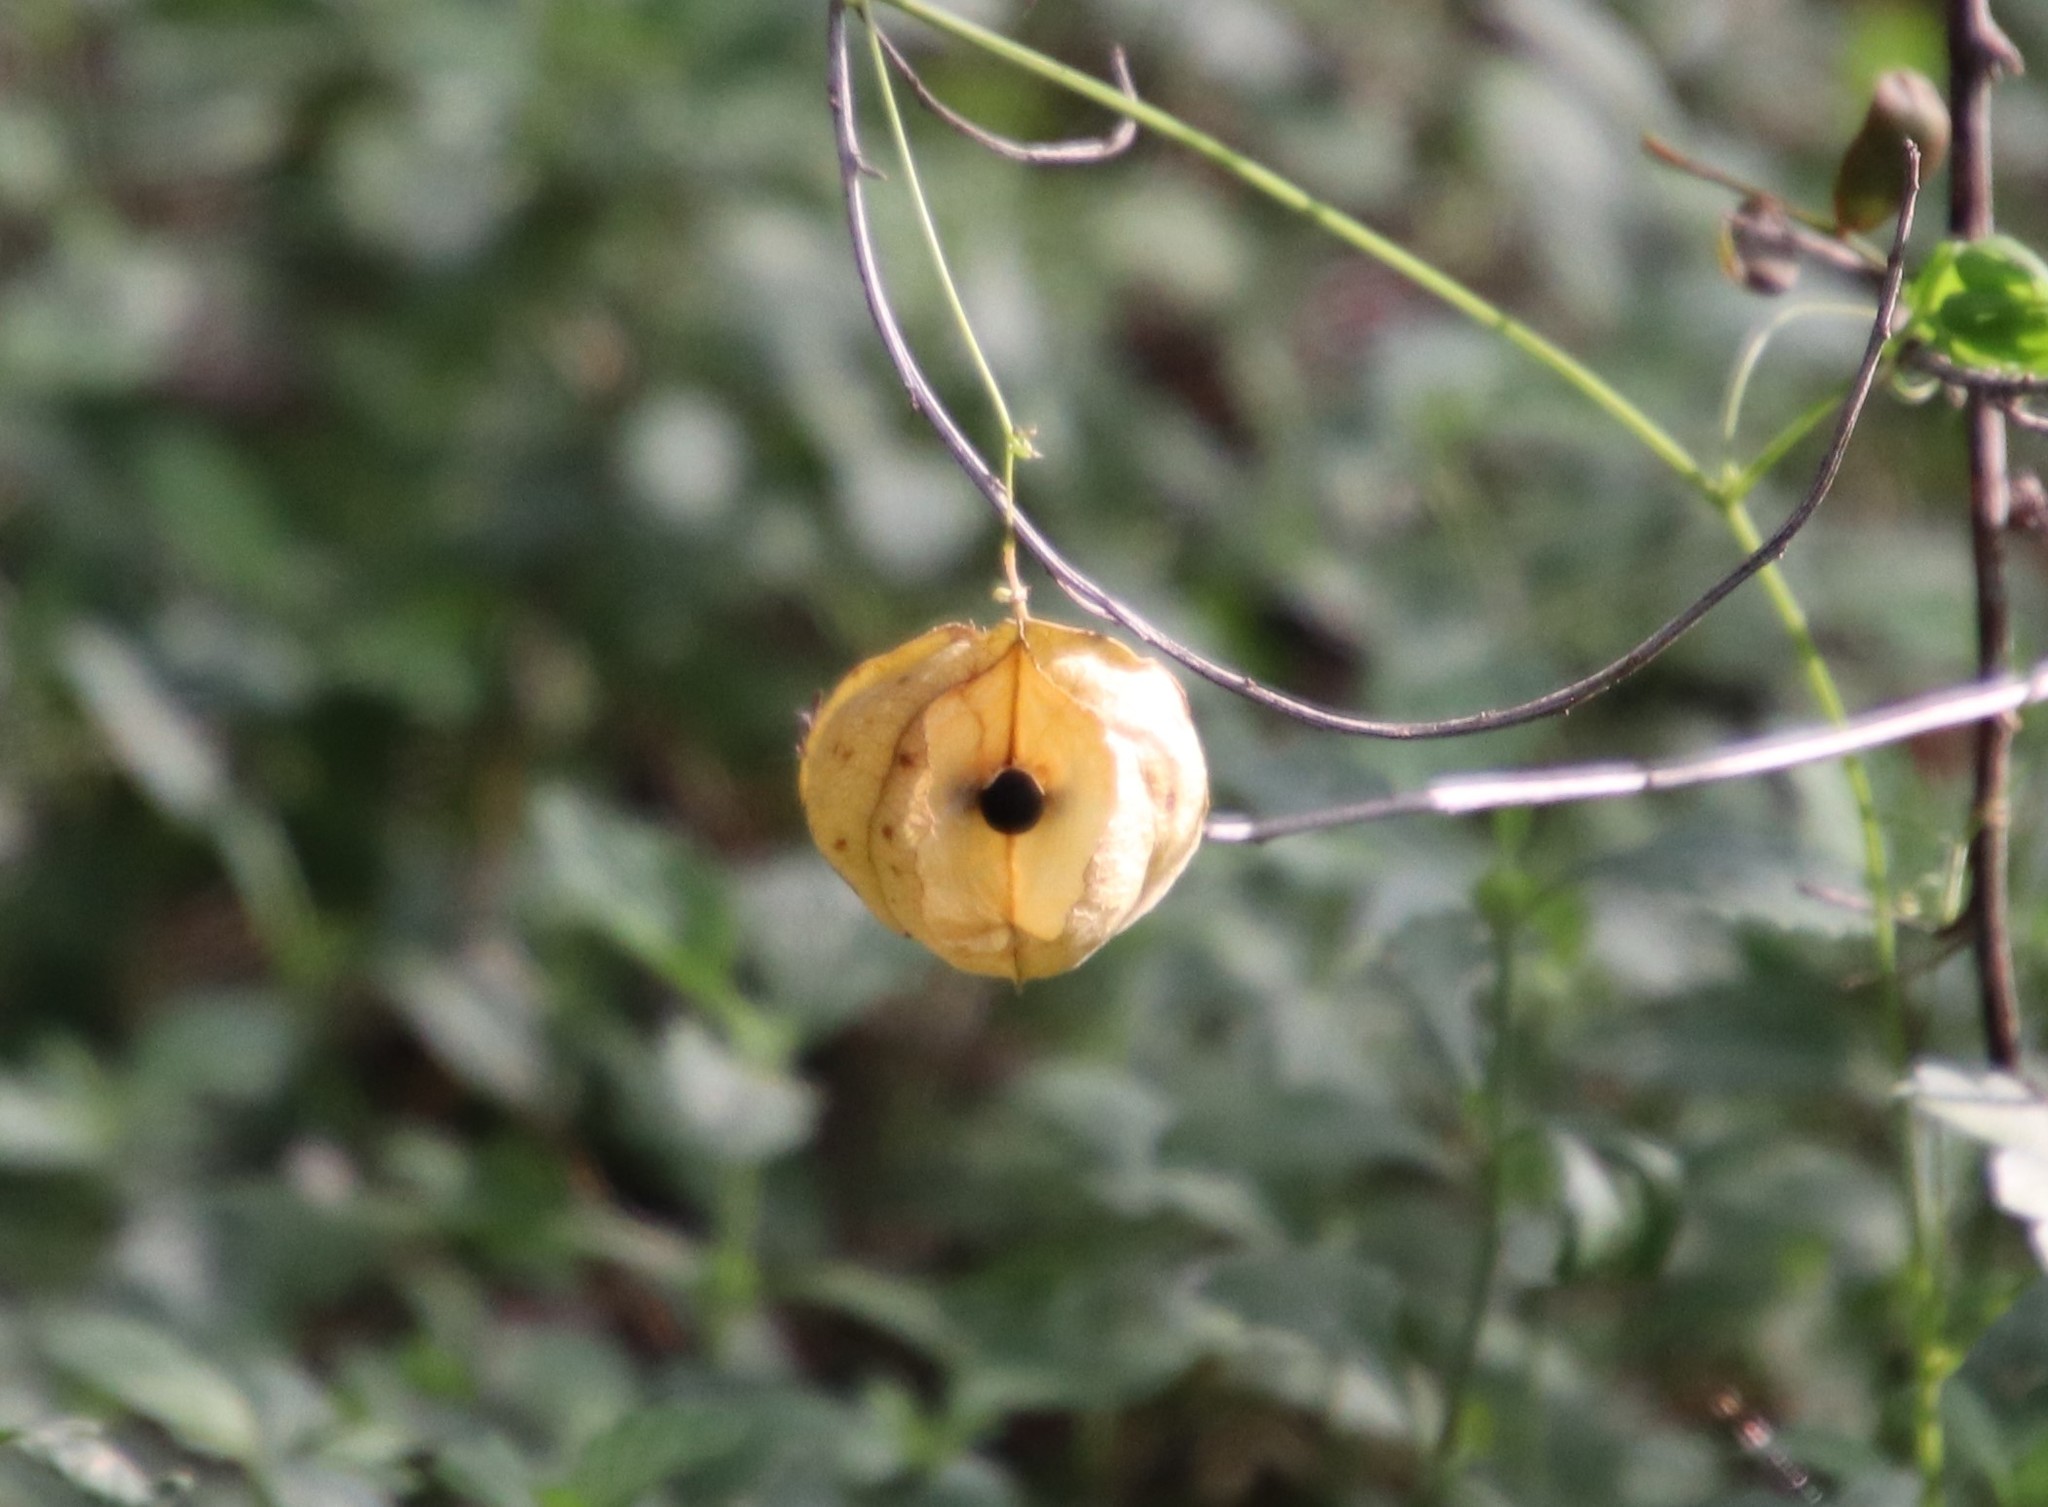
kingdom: Plantae
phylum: Tracheophyta
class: Magnoliopsida
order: Sapindales
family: Sapindaceae
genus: Cardiospermum
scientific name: Cardiospermum halicacabum
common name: Balloon vine
